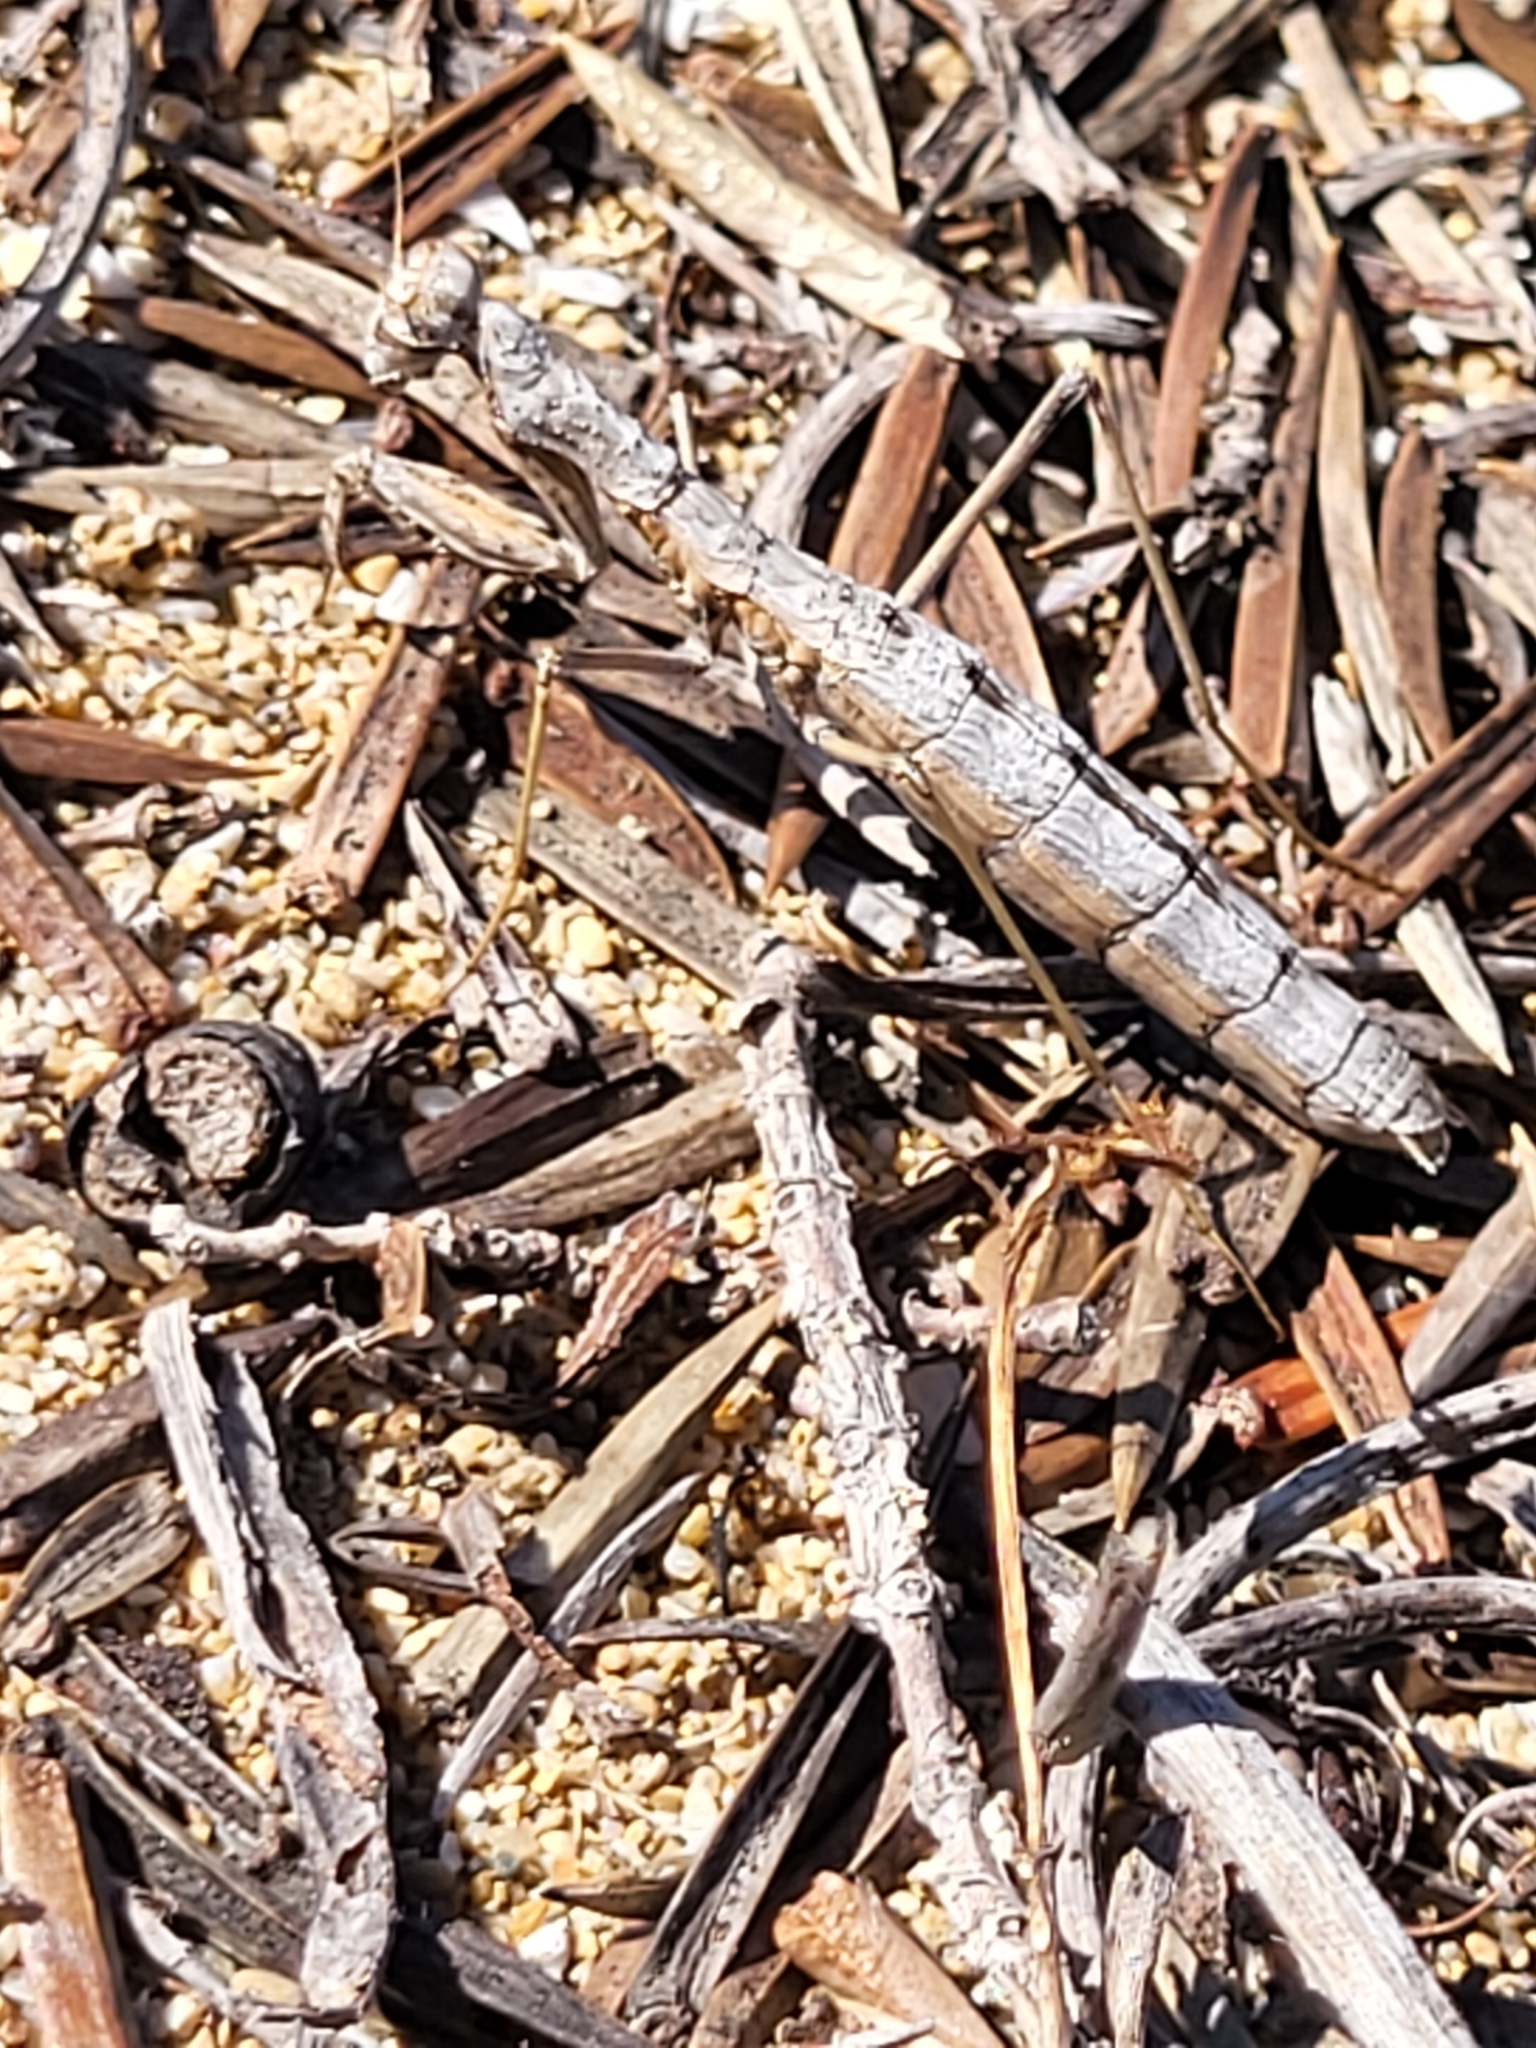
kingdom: Animalia
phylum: Arthropoda
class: Insecta
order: Mantodea
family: Rivetinidae
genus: Geomantis
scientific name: Geomantis larvoides
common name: Wingless ground mantis
